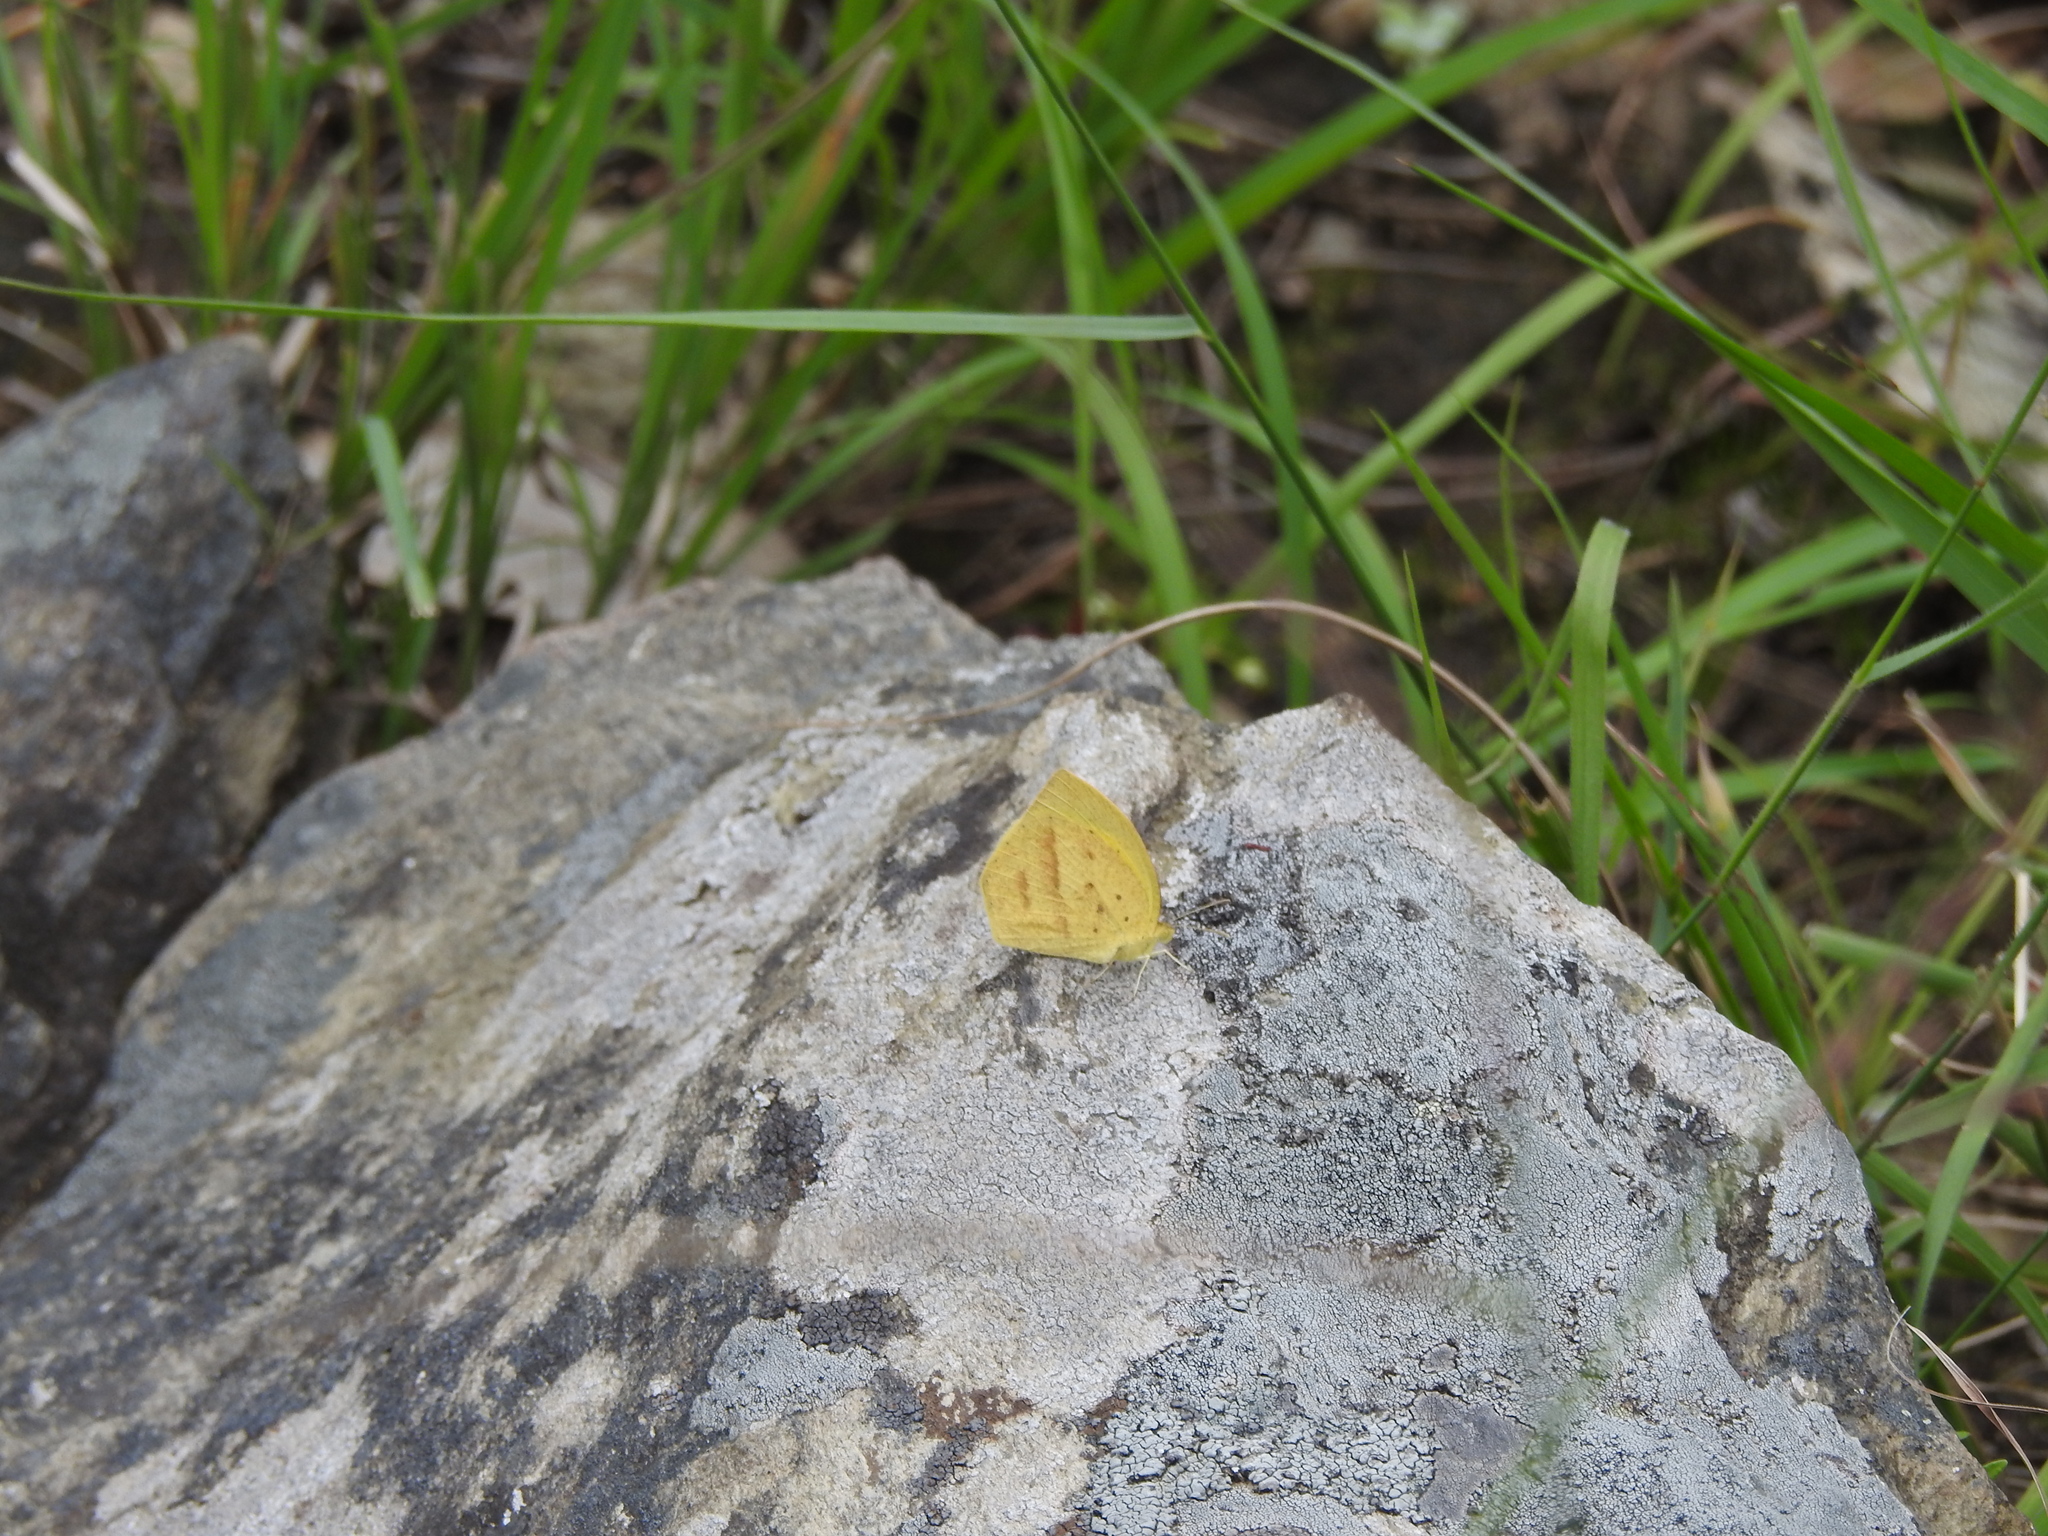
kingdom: Animalia
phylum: Arthropoda
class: Insecta
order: Lepidoptera
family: Pieridae
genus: Eurema
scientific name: Eurema laeta
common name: Spotless grass yellow
